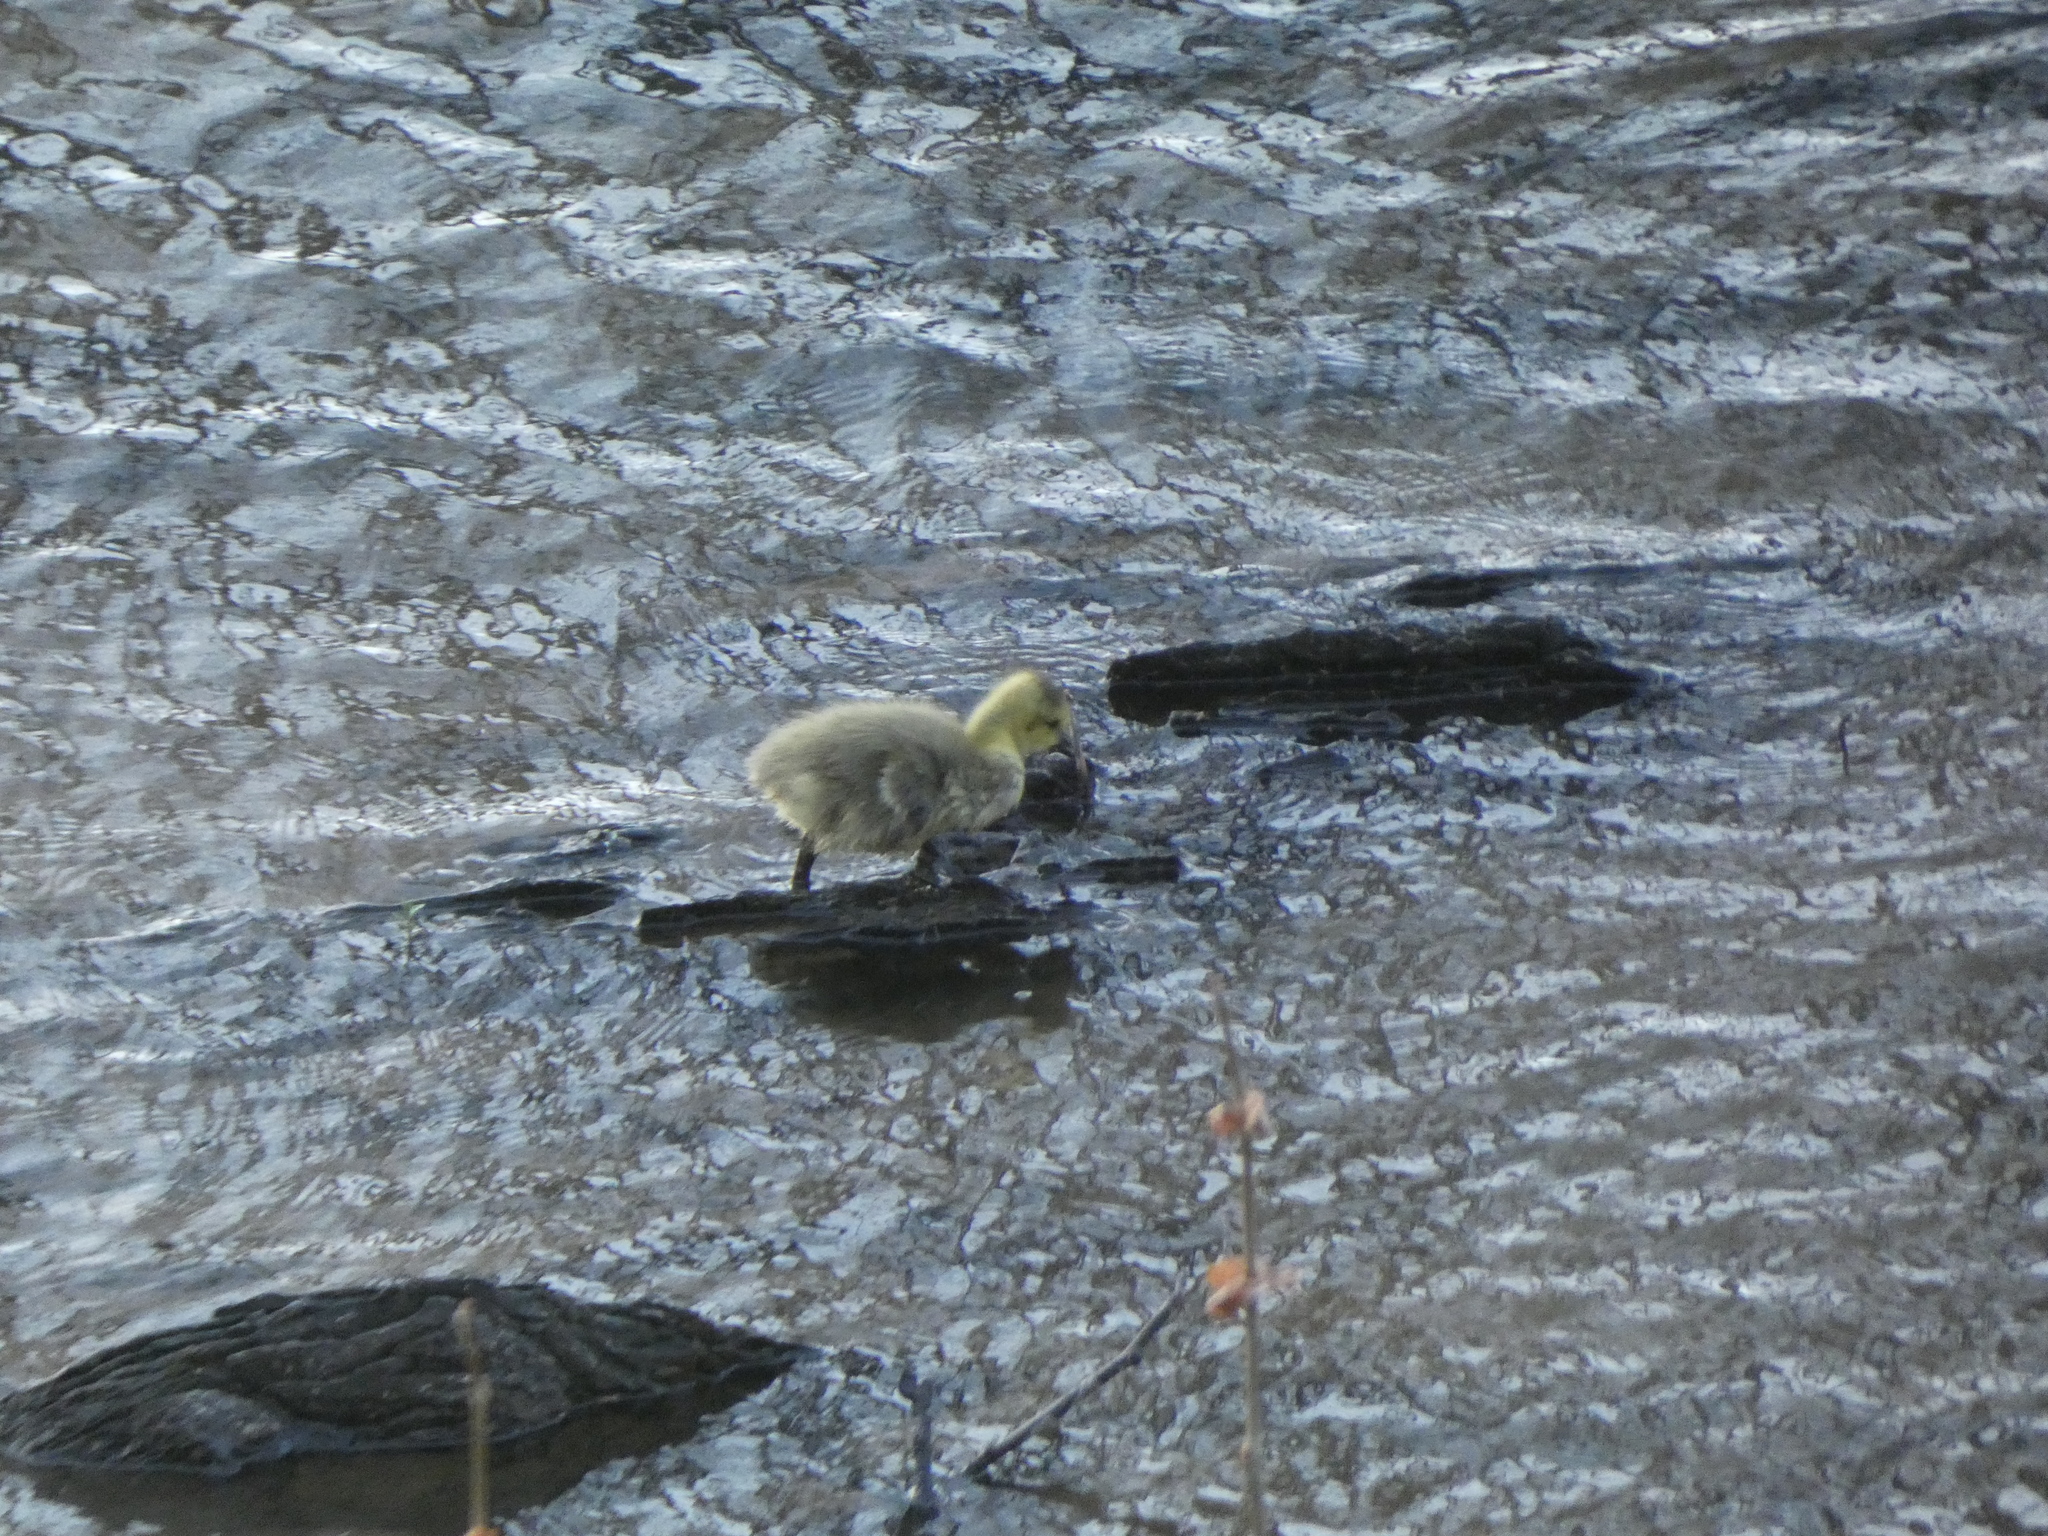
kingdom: Animalia
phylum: Chordata
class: Aves
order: Anseriformes
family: Anatidae
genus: Branta
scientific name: Branta canadensis
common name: Canada goose
